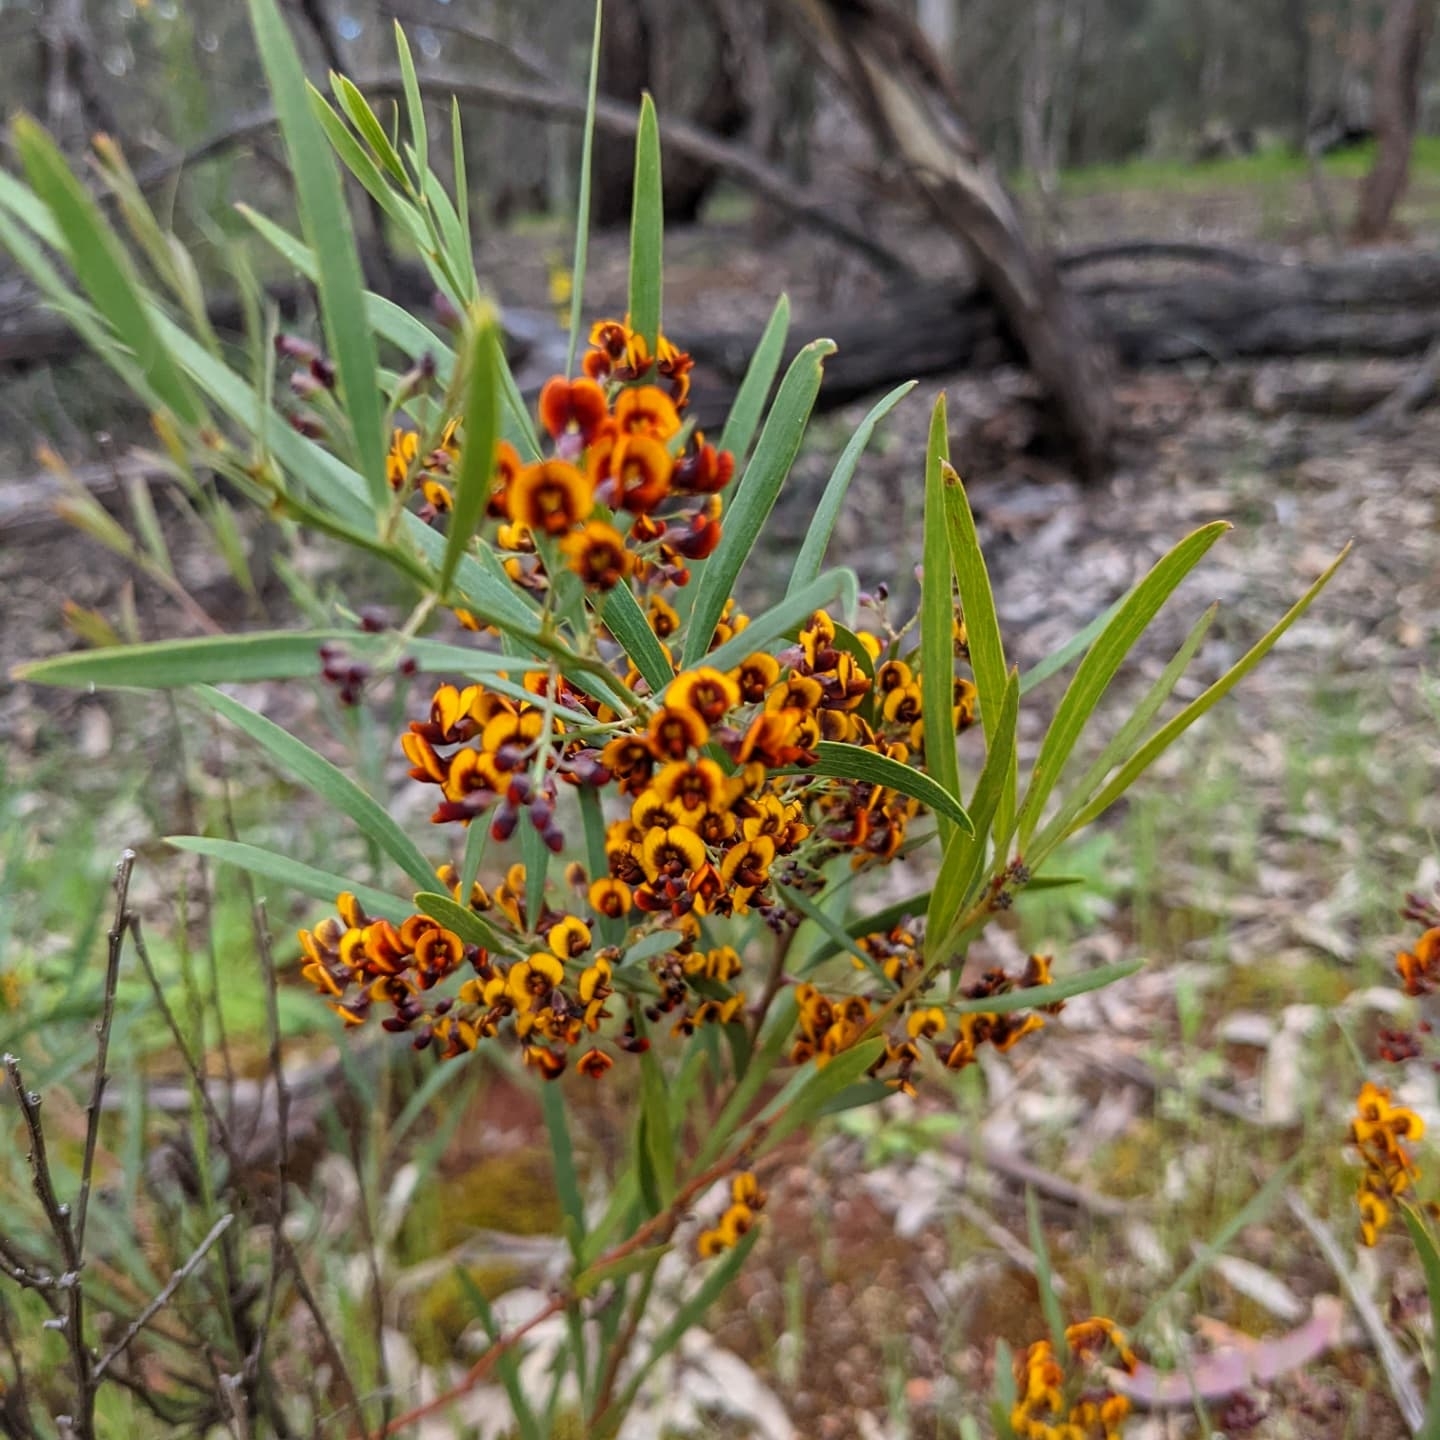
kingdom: Plantae
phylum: Tracheophyta
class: Magnoliopsida
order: Fabales
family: Fabaceae
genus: Daviesia
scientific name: Daviesia leptophylla
